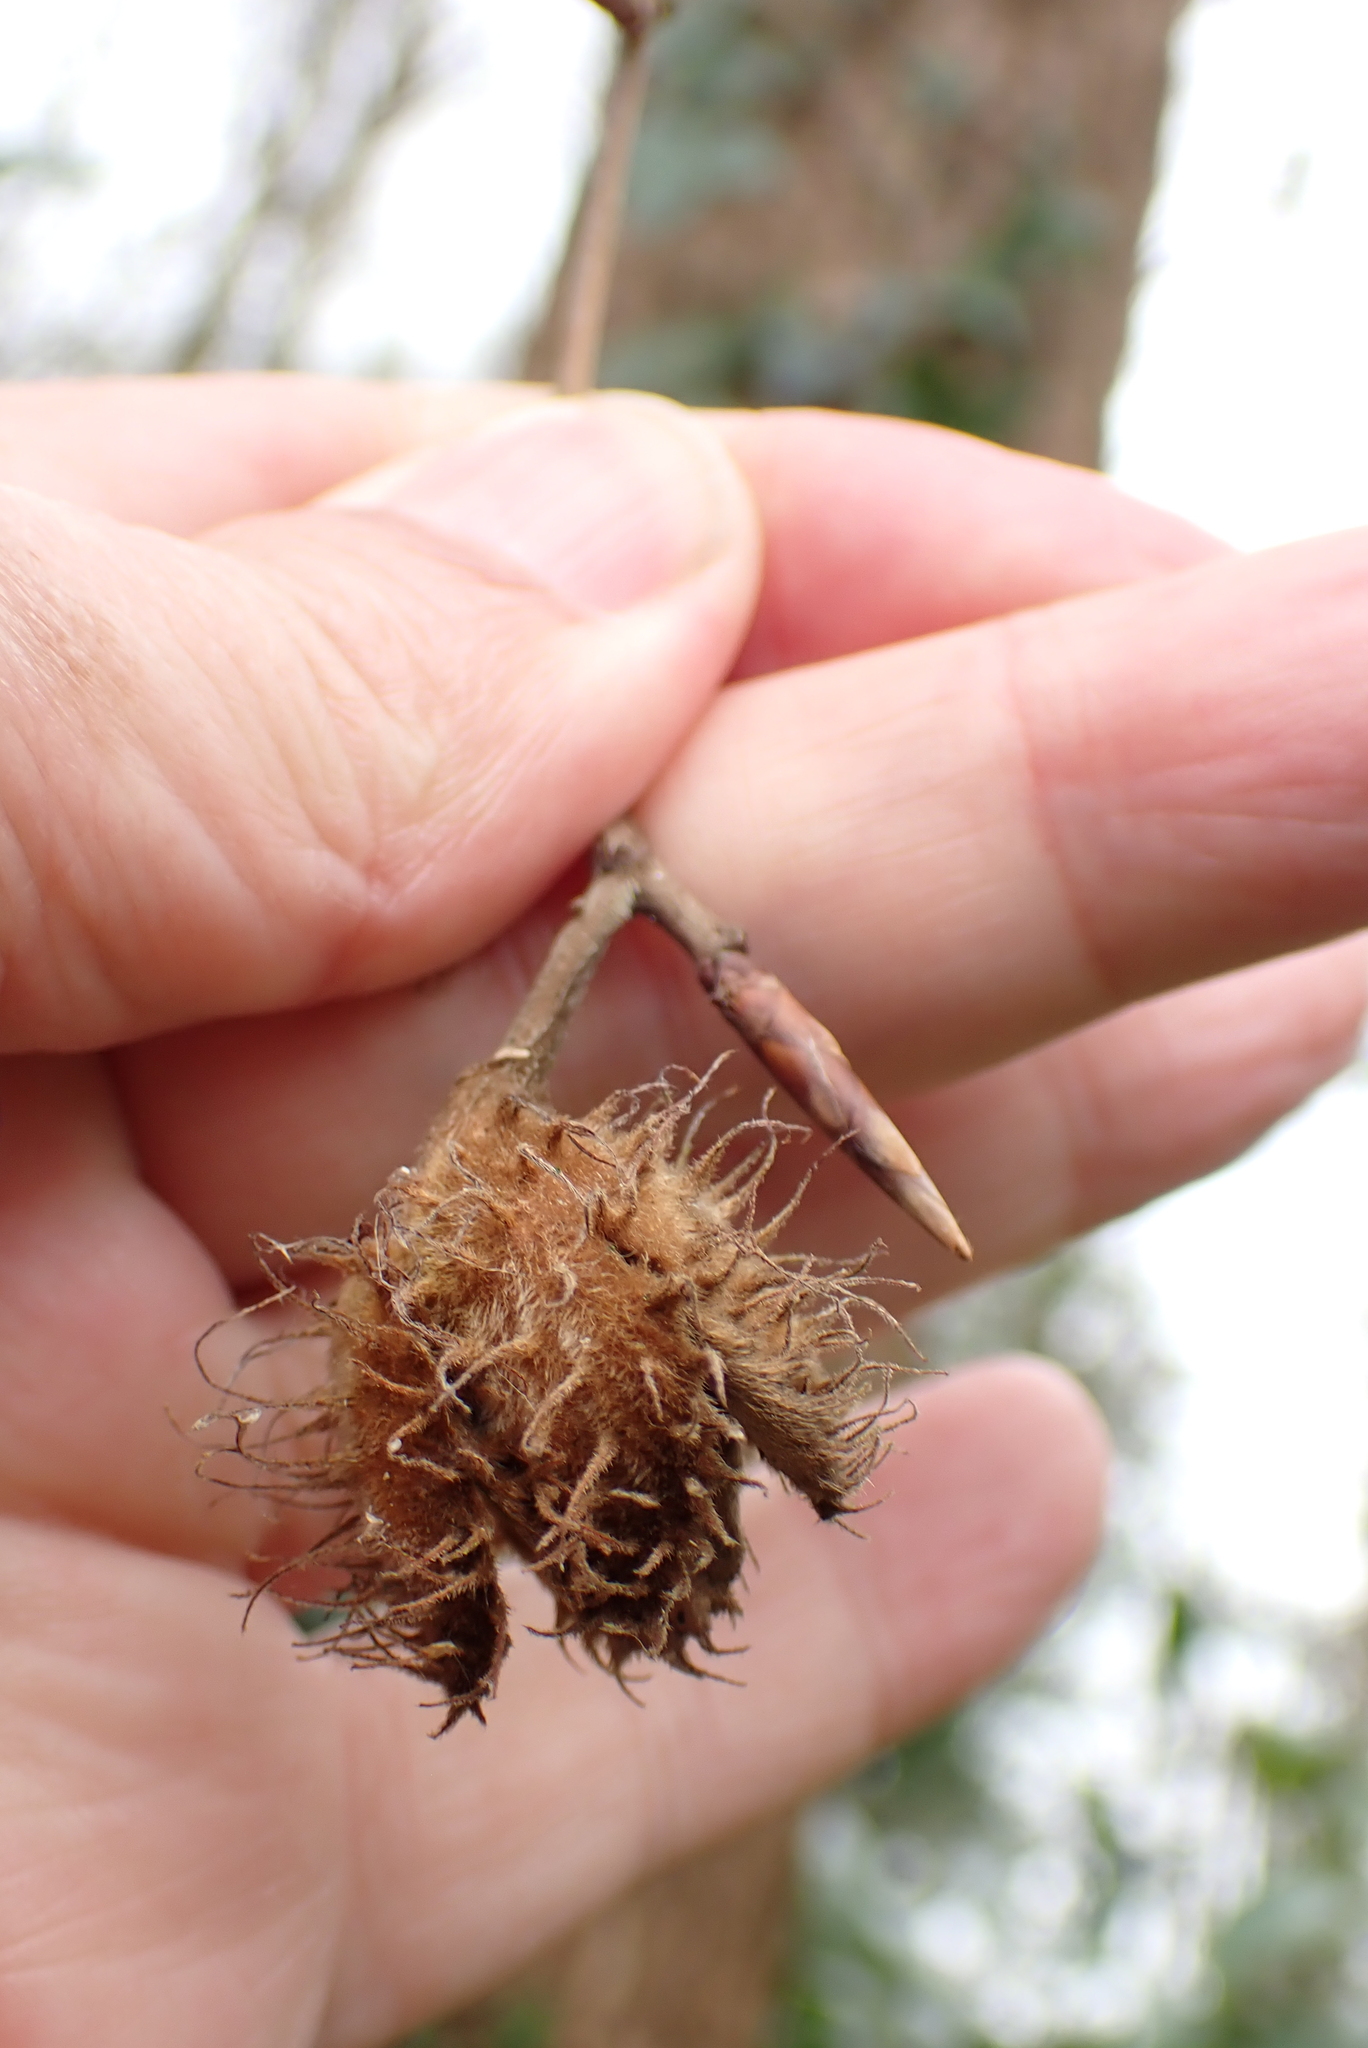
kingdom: Plantae
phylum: Tracheophyta
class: Magnoliopsida
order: Fagales
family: Fagaceae
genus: Fagus
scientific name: Fagus sylvatica
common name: Beech
